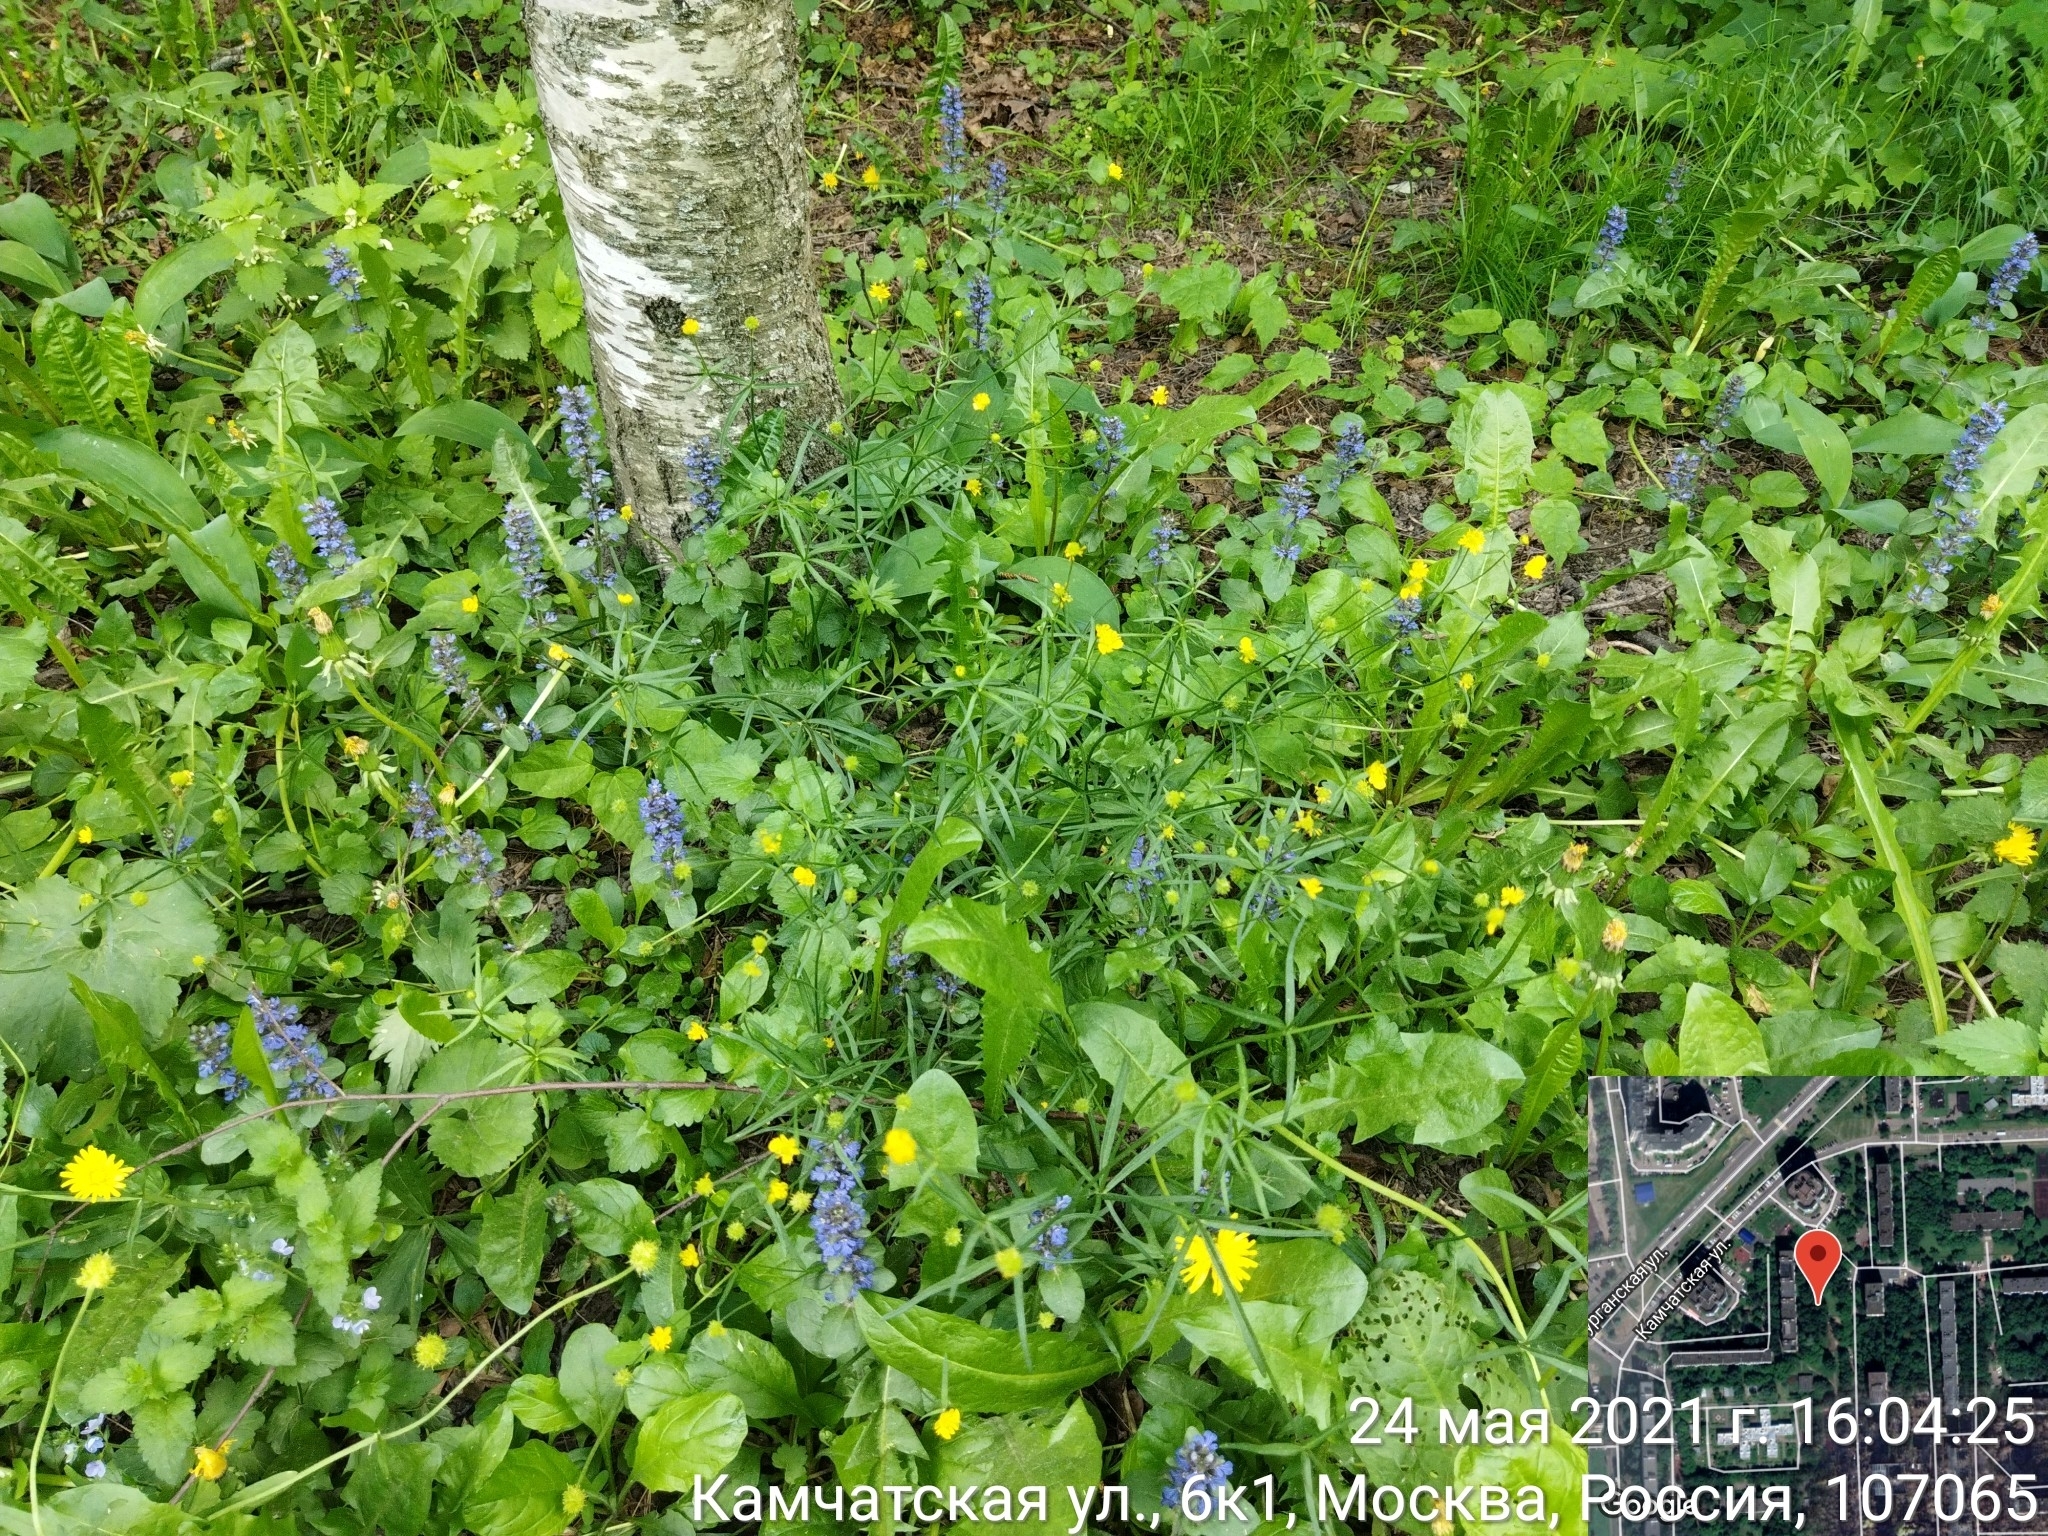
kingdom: Plantae
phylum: Tracheophyta
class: Magnoliopsida
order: Ranunculales
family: Ranunculaceae
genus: Ranunculus
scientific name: Ranunculus auricomus
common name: Goldilocks buttercup
